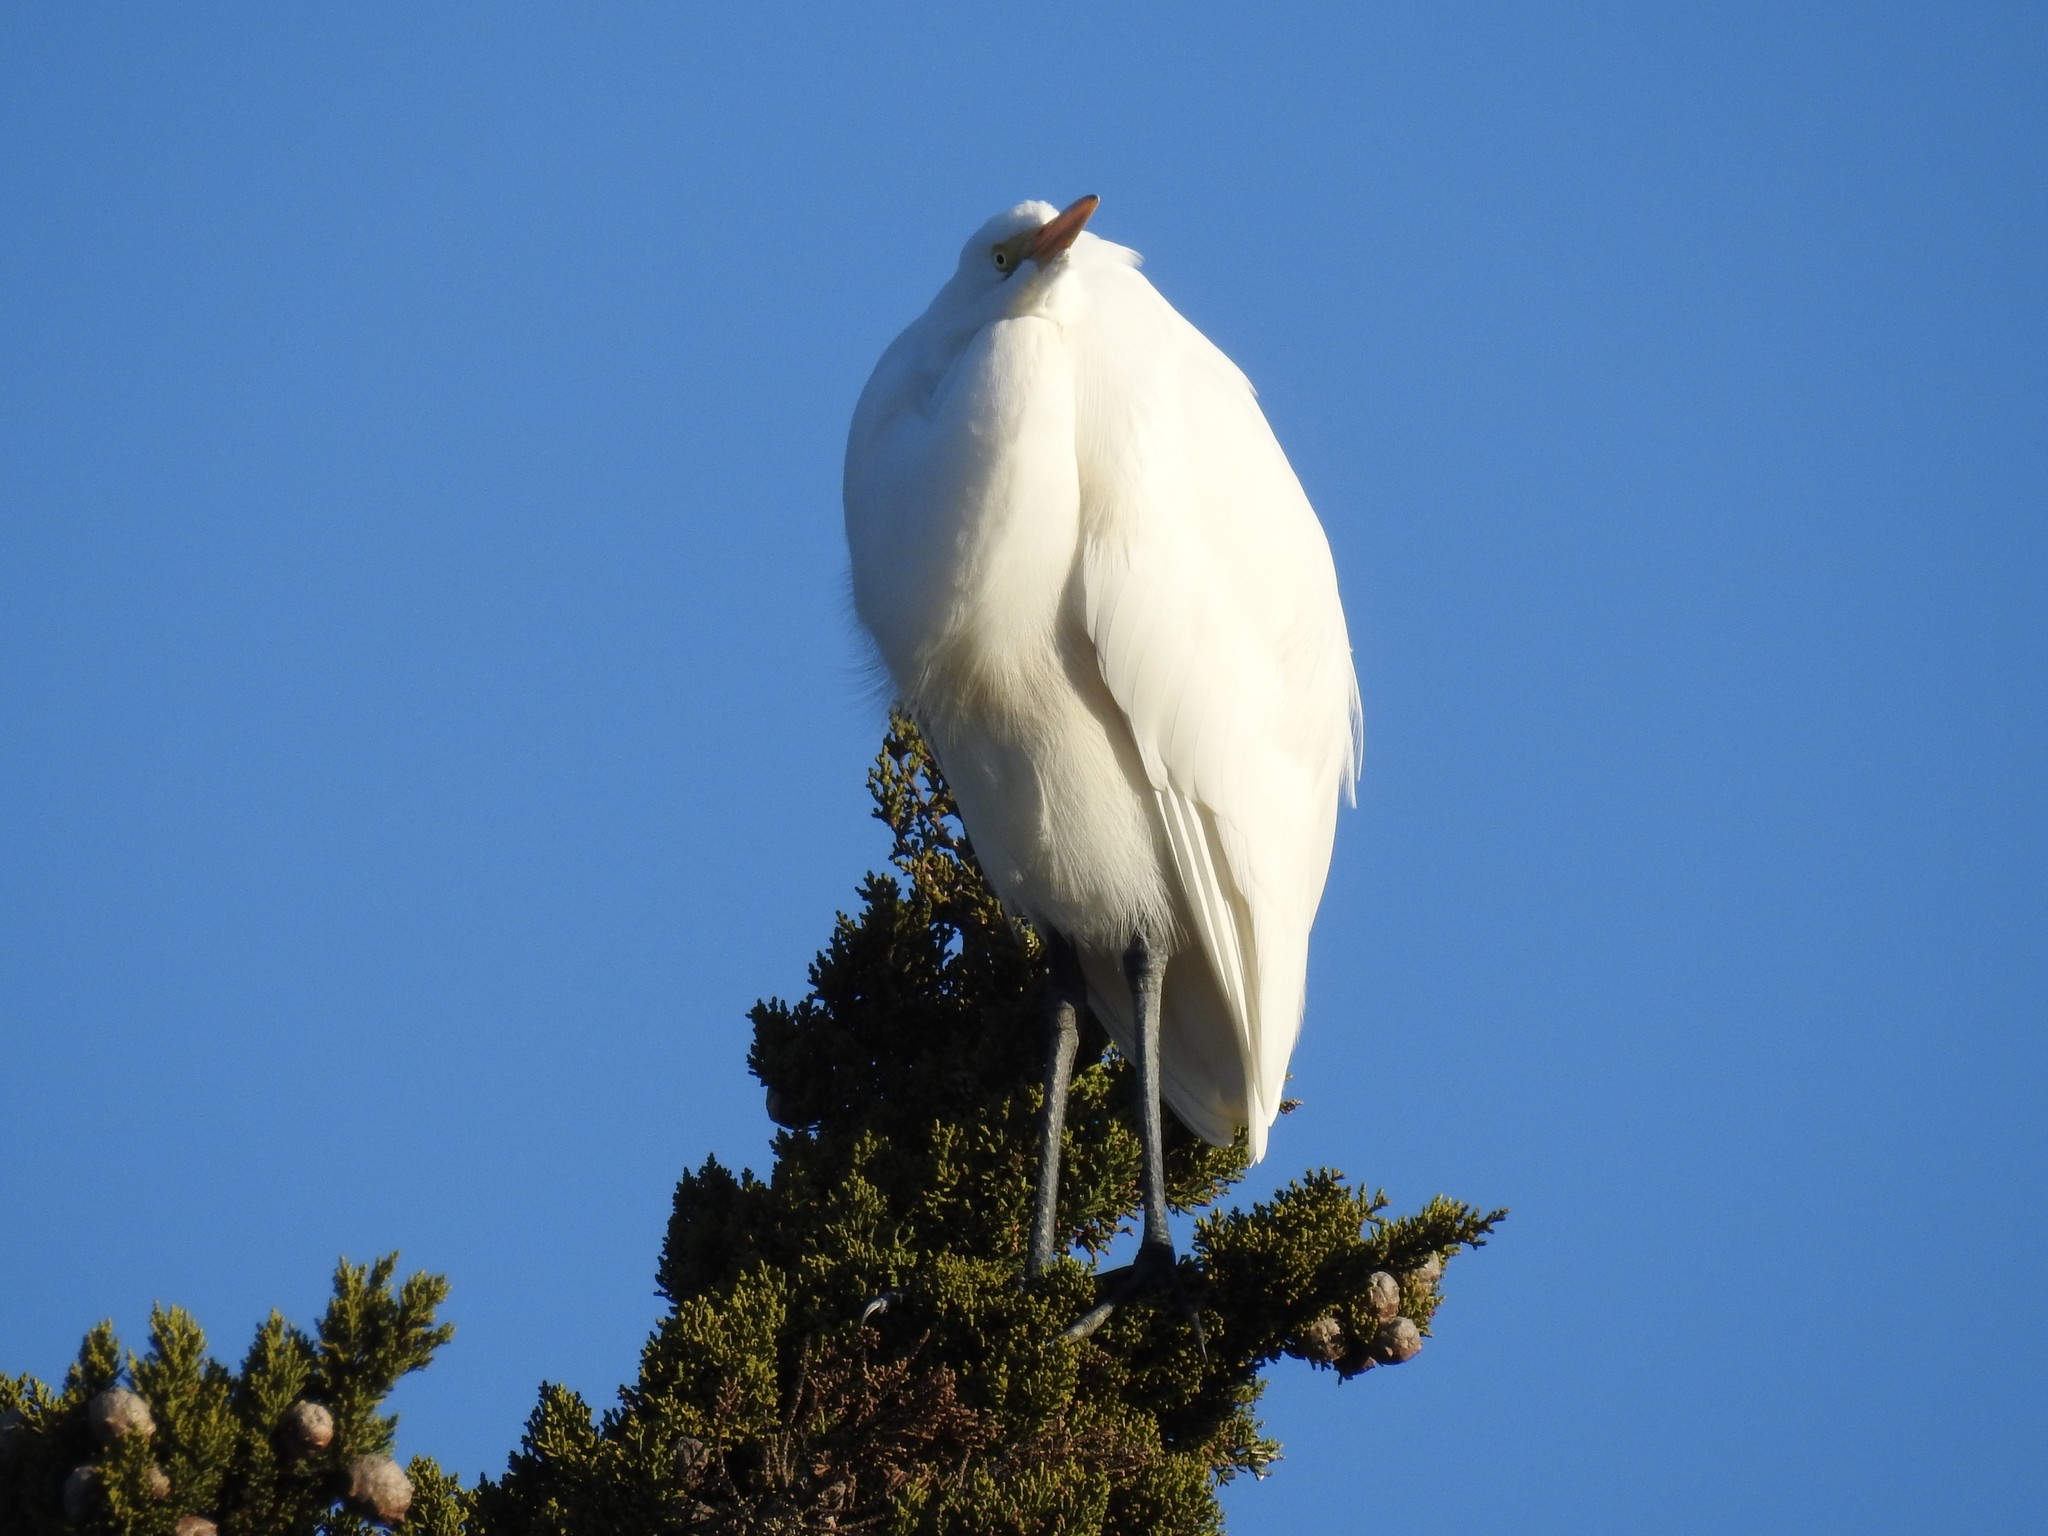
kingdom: Animalia
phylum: Chordata
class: Aves
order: Pelecaniformes
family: Ardeidae
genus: Ardea
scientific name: Ardea alba
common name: Great egret
